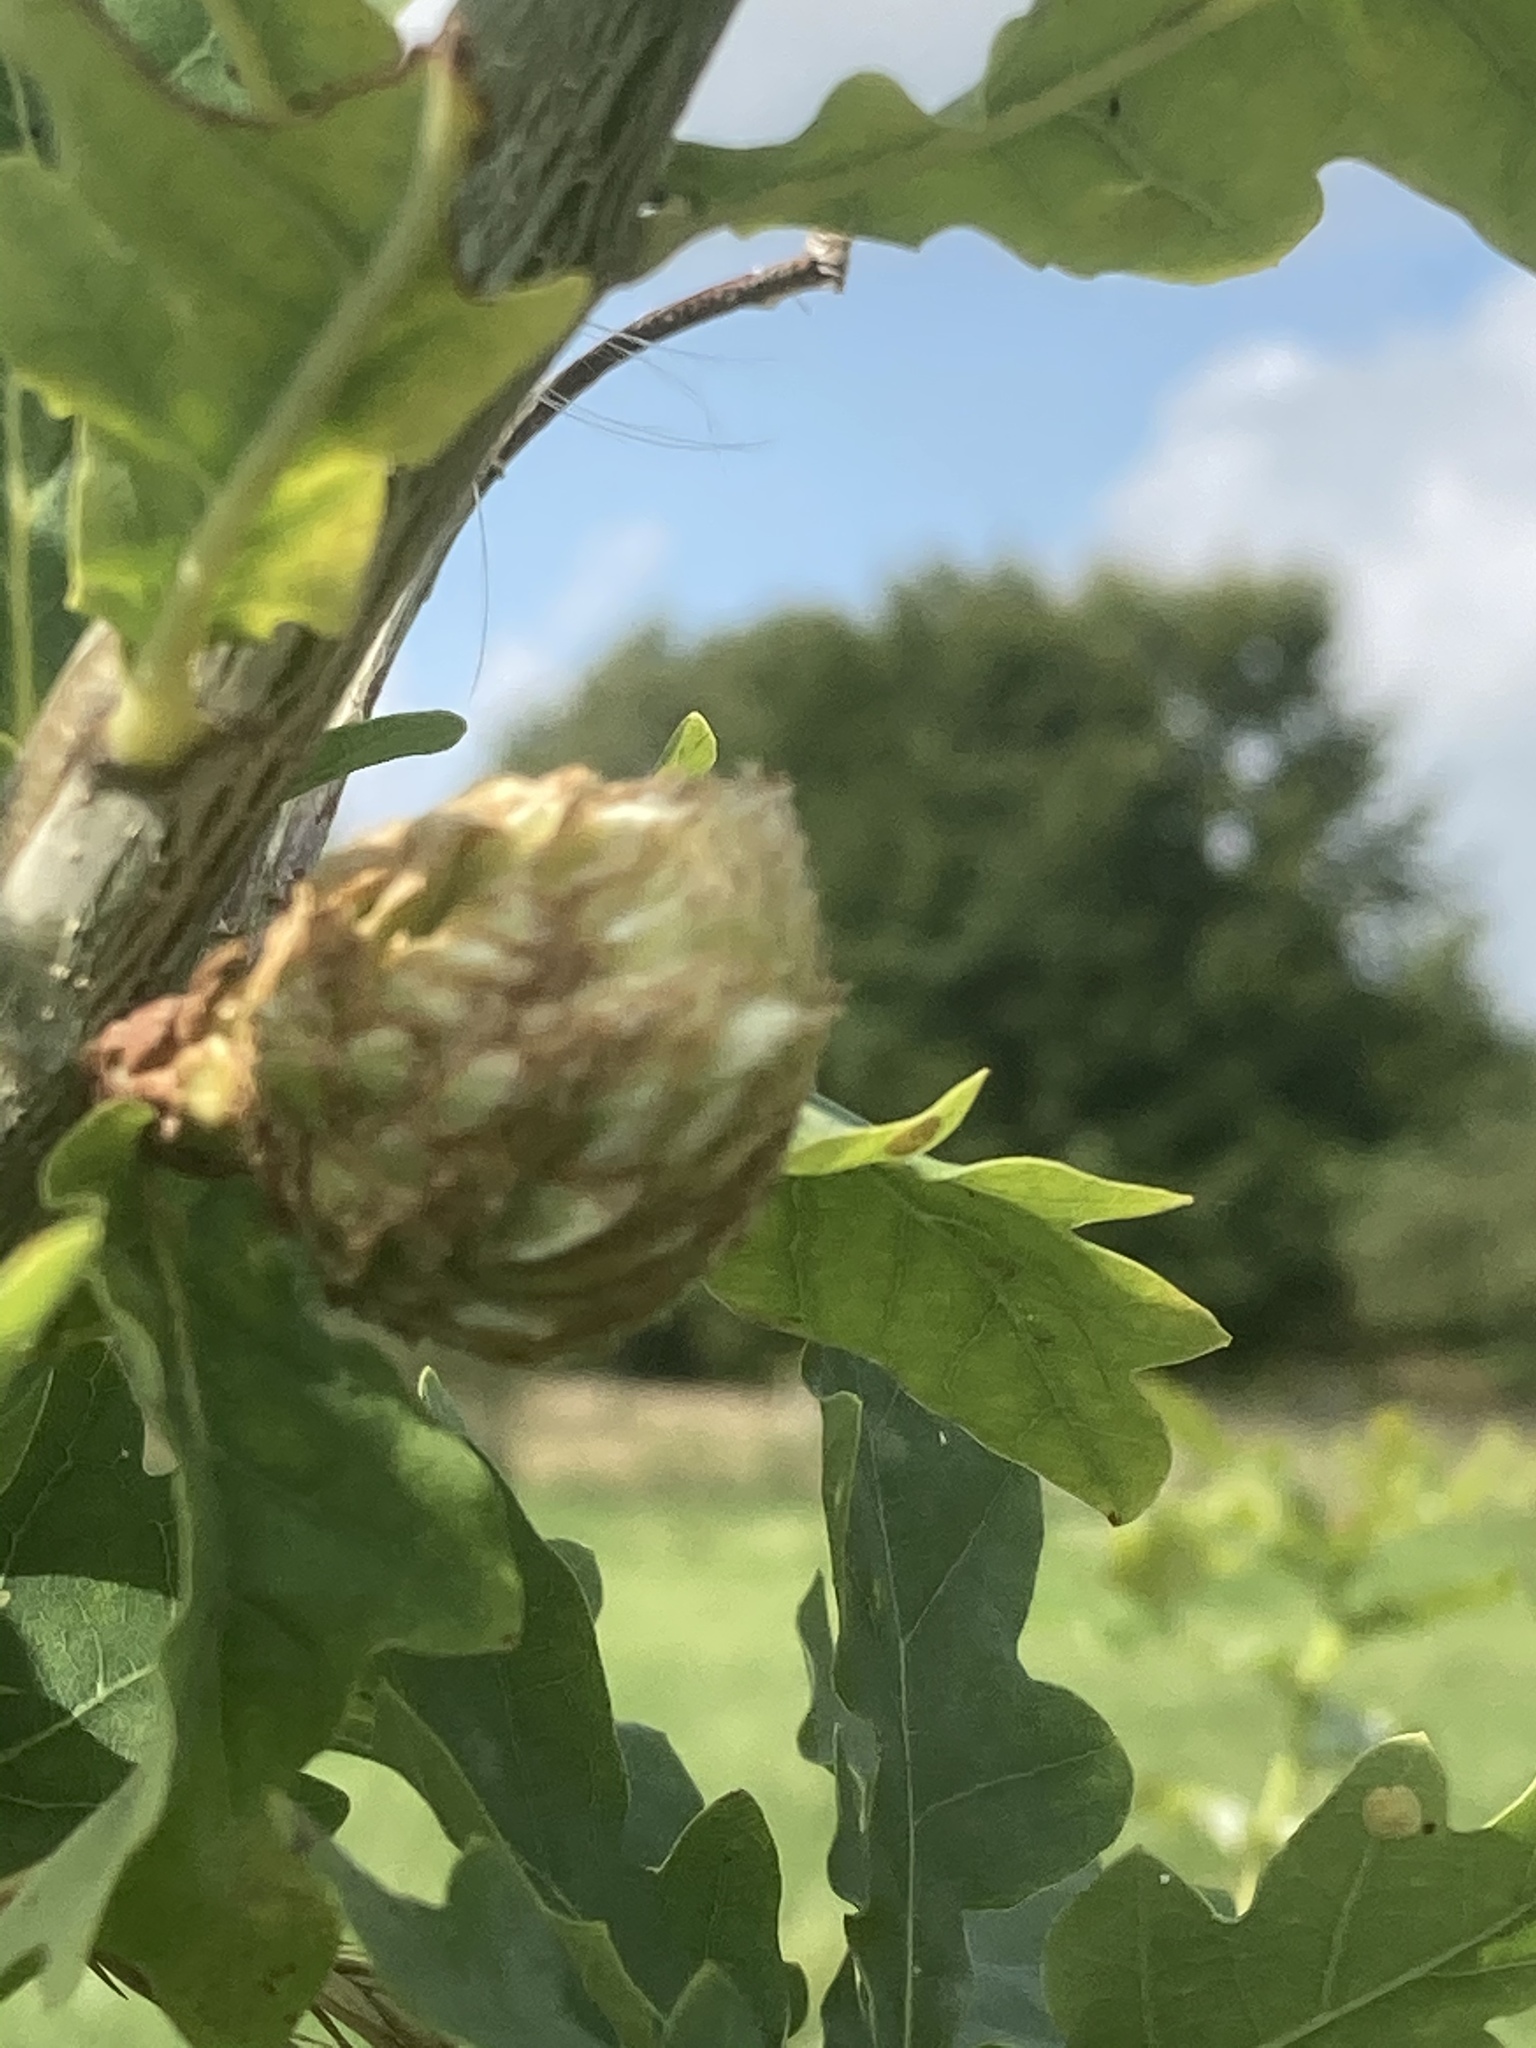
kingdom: Animalia
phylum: Arthropoda
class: Insecta
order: Hymenoptera
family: Cynipidae
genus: Andricus
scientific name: Andricus foecundatrix
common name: Artichoke gall
